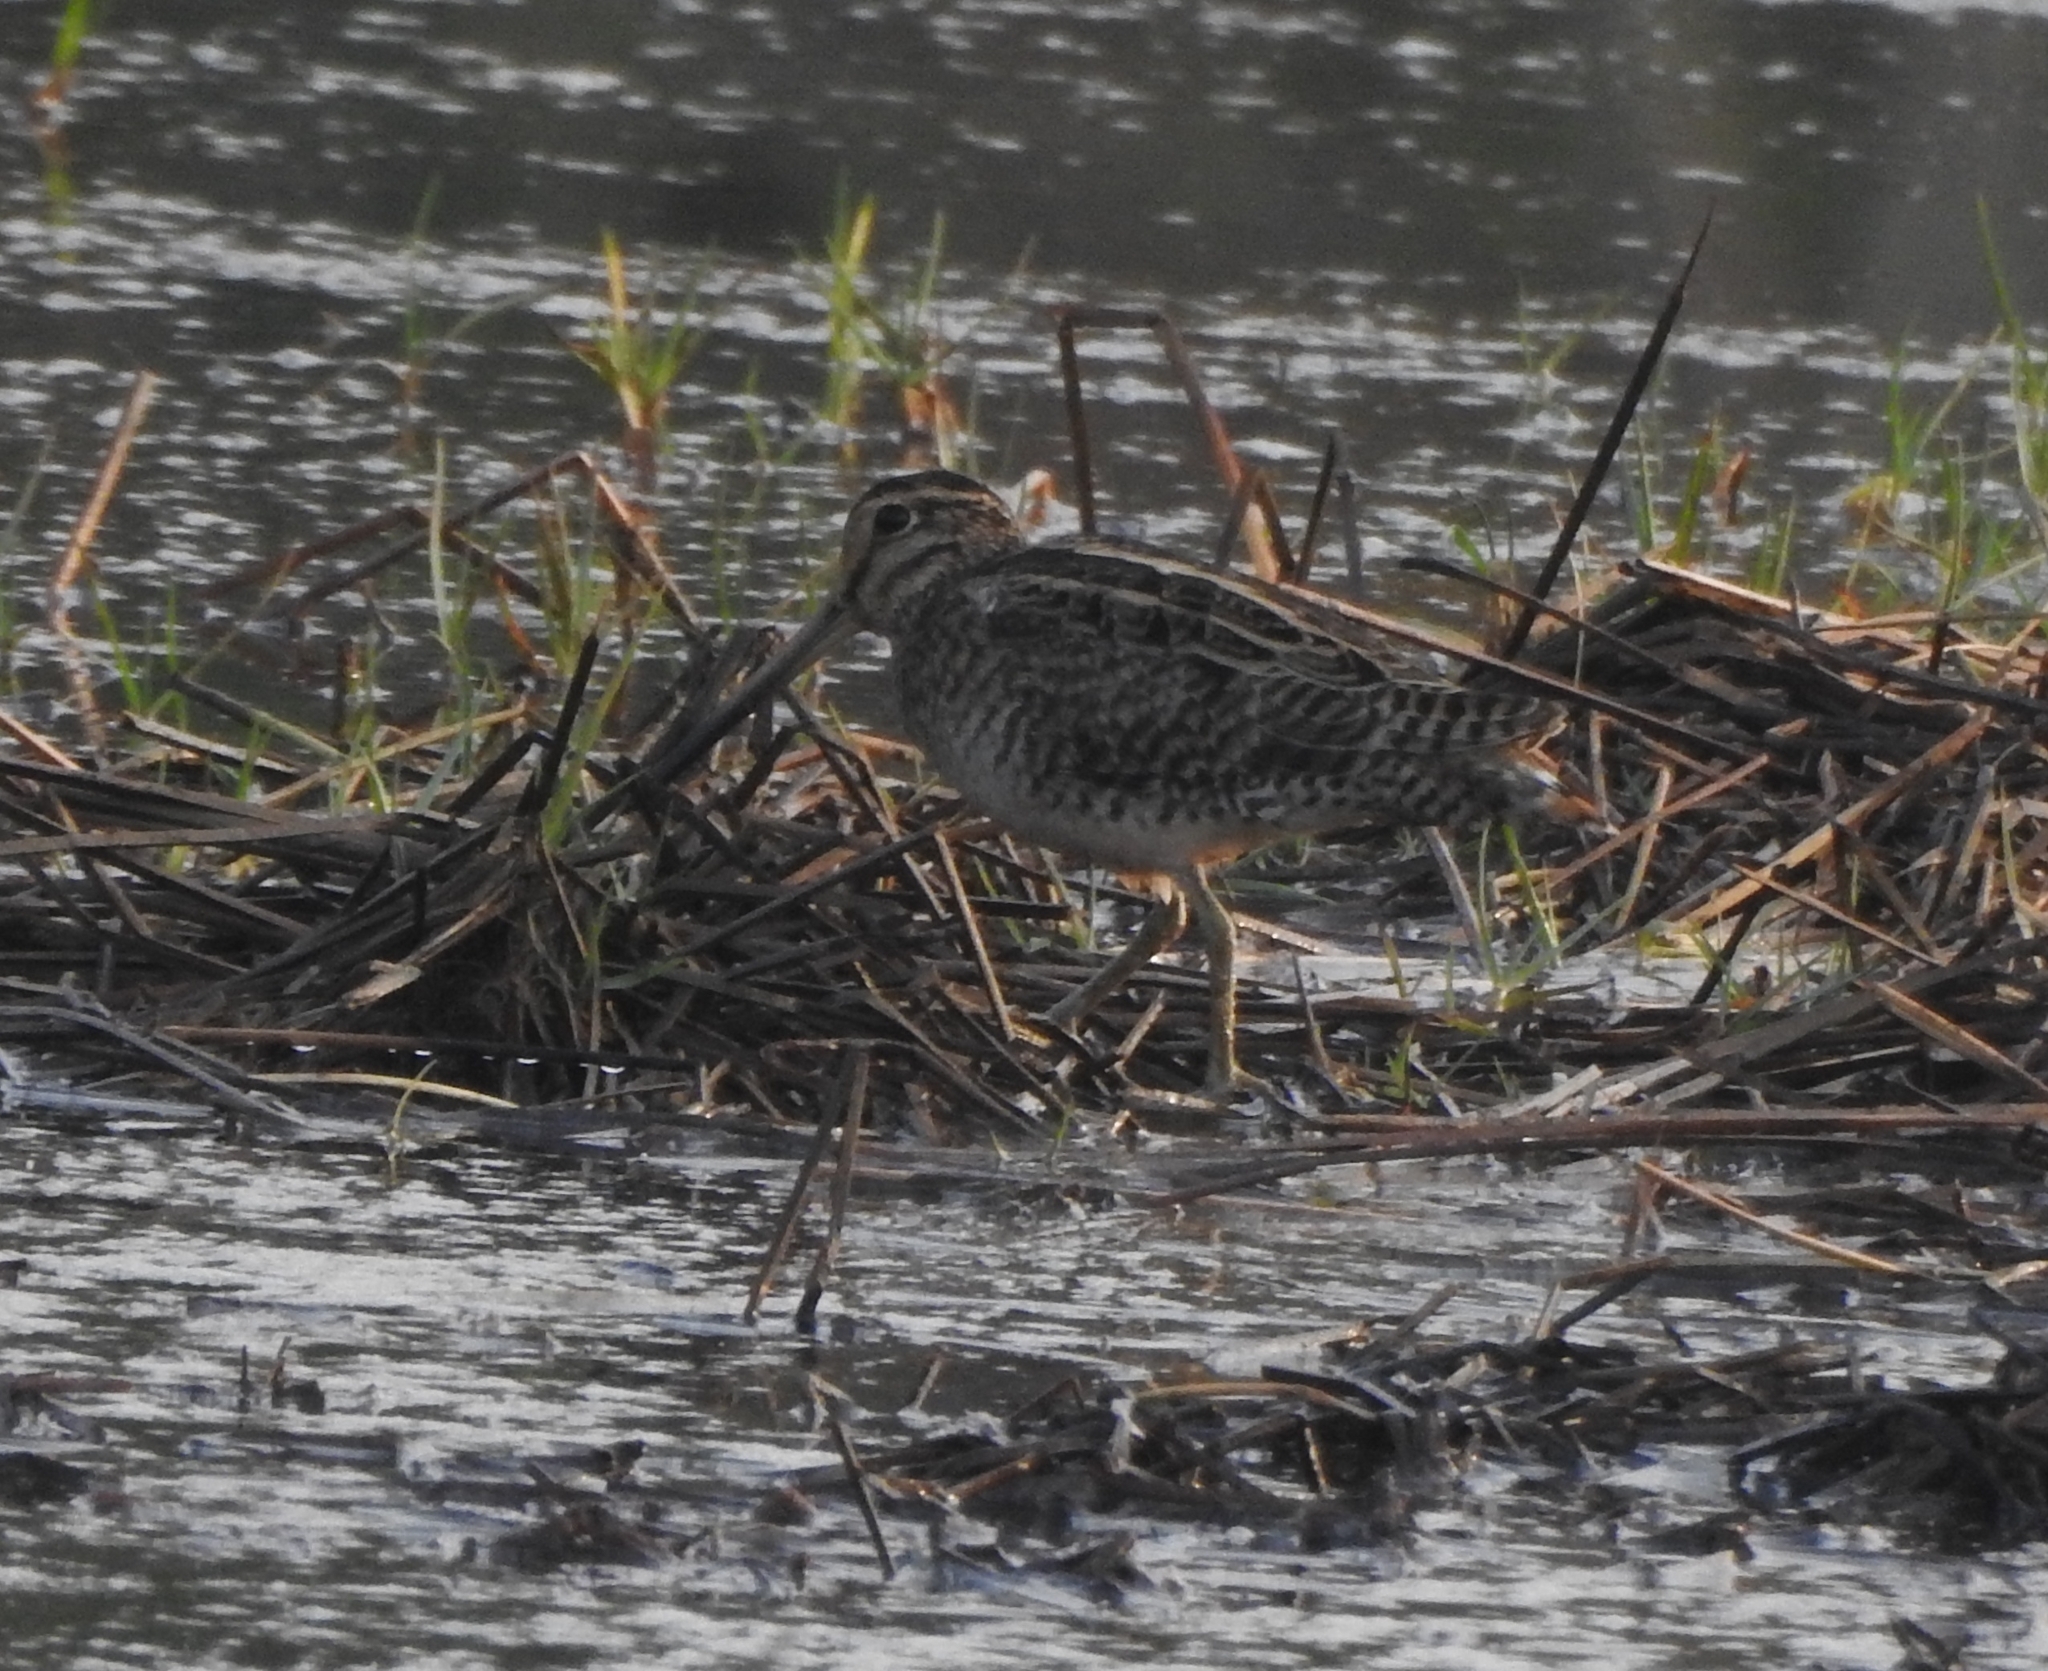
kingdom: Animalia
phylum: Chordata
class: Aves
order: Charadriiformes
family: Scolopacidae
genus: Gallinago
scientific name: Gallinago stenura
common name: Pin-tailed snipe
